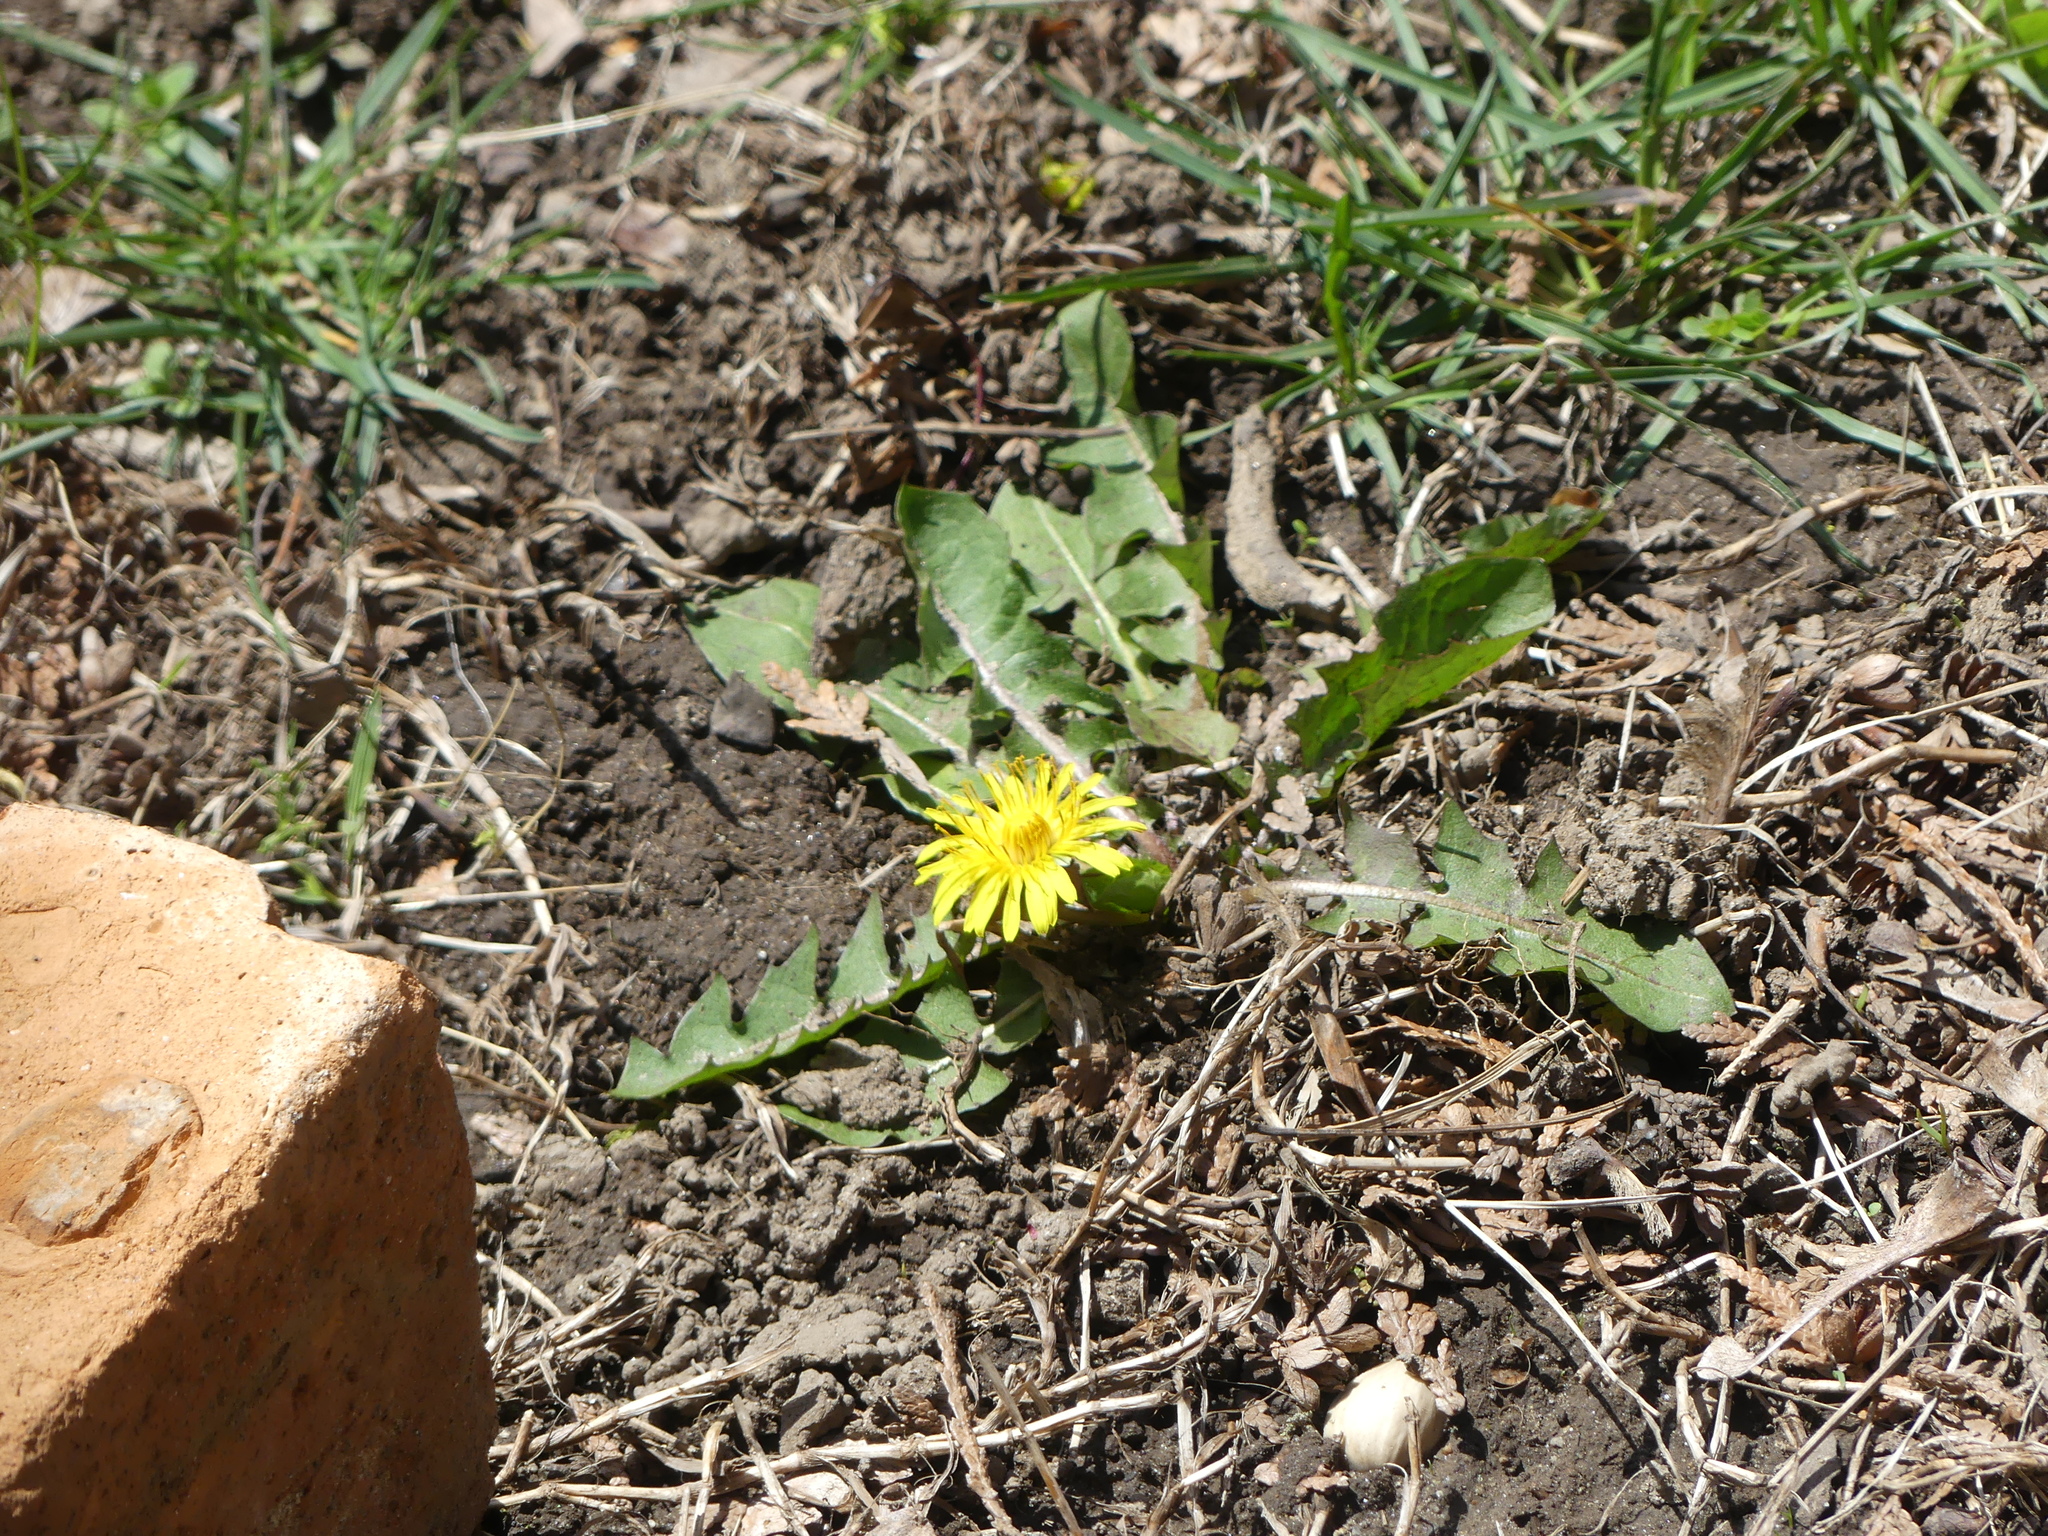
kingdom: Plantae
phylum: Tracheophyta
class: Magnoliopsida
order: Asterales
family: Asteraceae
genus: Taraxacum
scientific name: Taraxacum officinale
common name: Common dandelion
